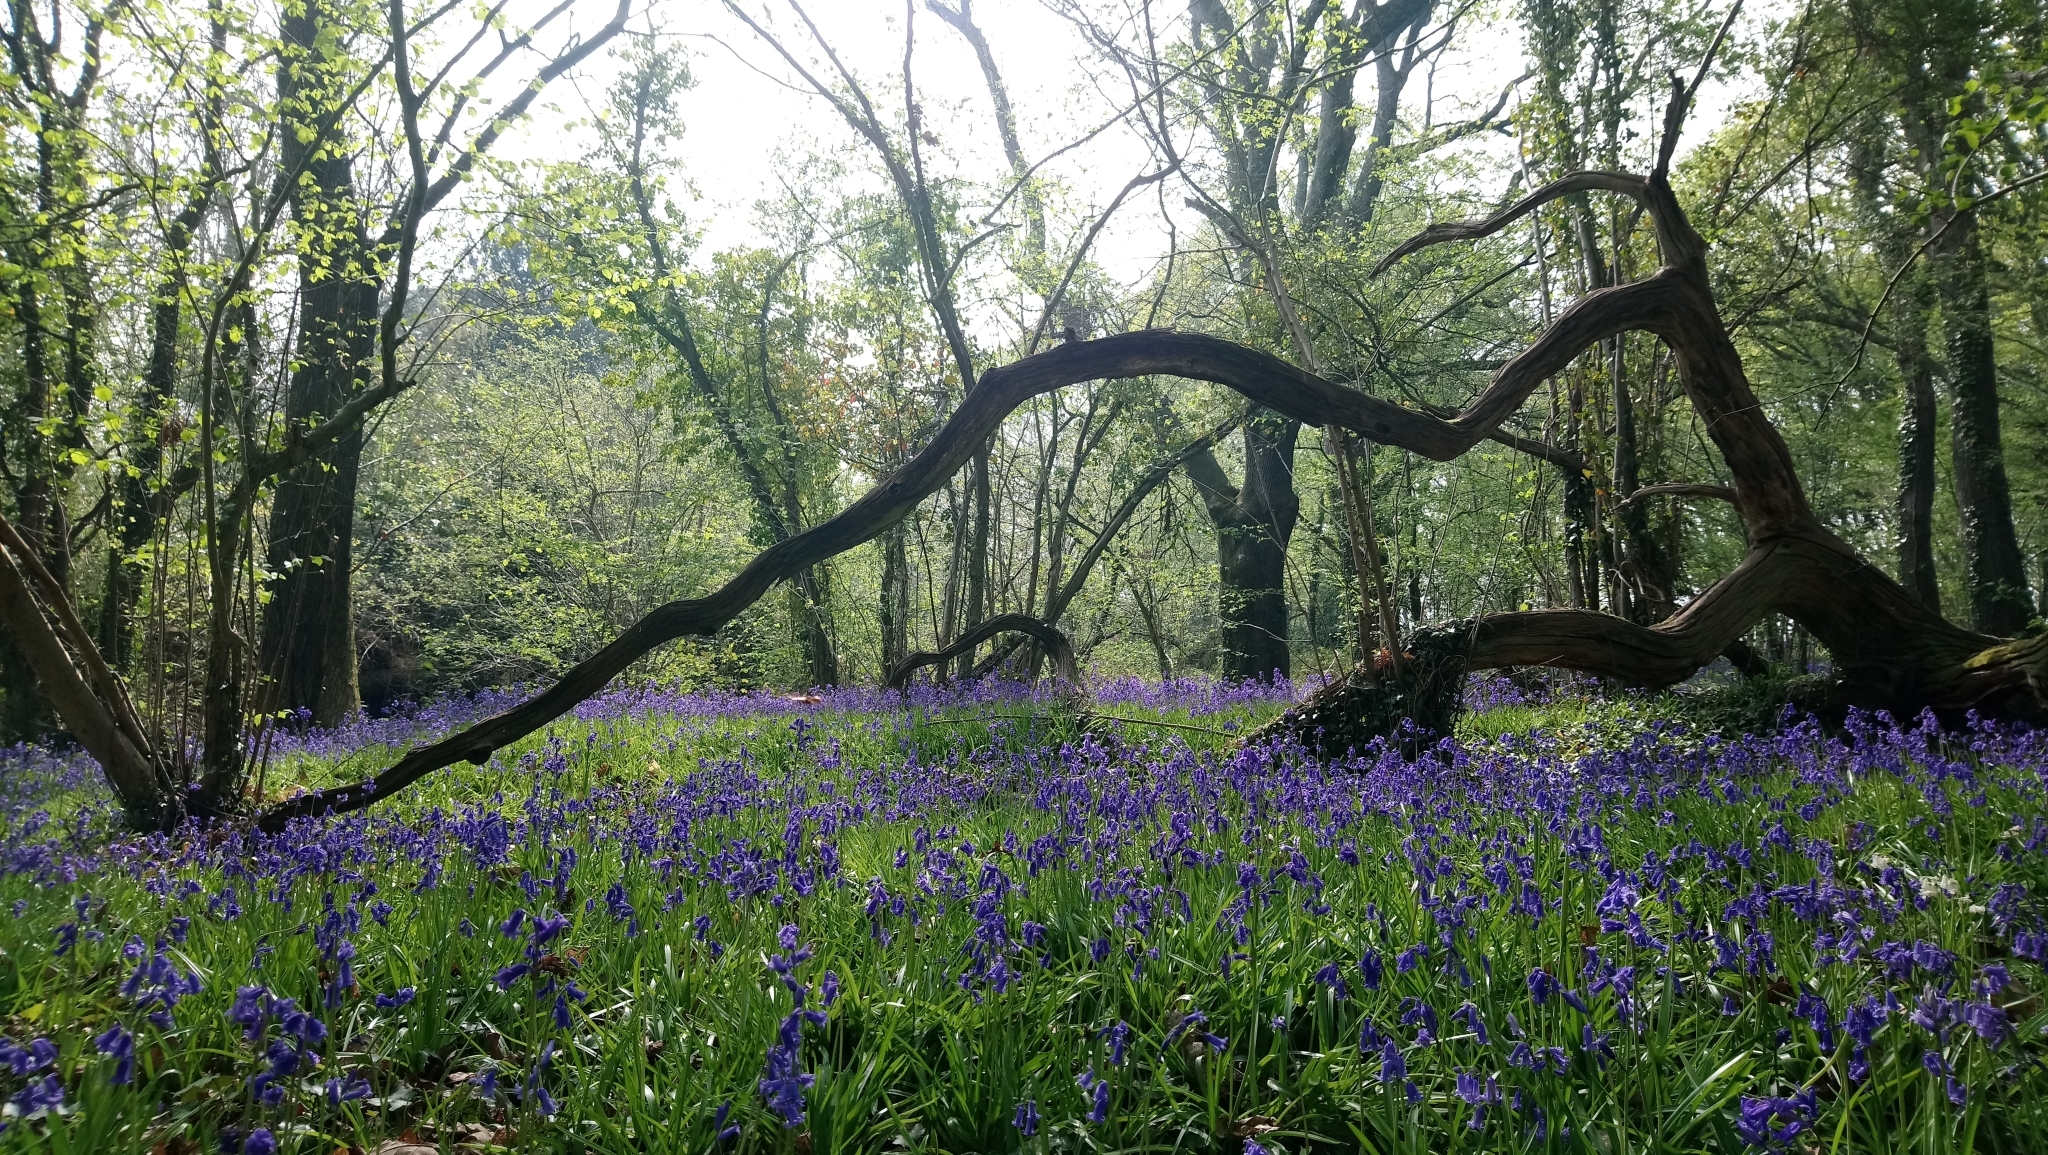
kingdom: Plantae
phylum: Tracheophyta
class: Liliopsida
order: Asparagales
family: Asparagaceae
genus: Hyacinthoides
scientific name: Hyacinthoides non-scripta
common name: Bluebell
